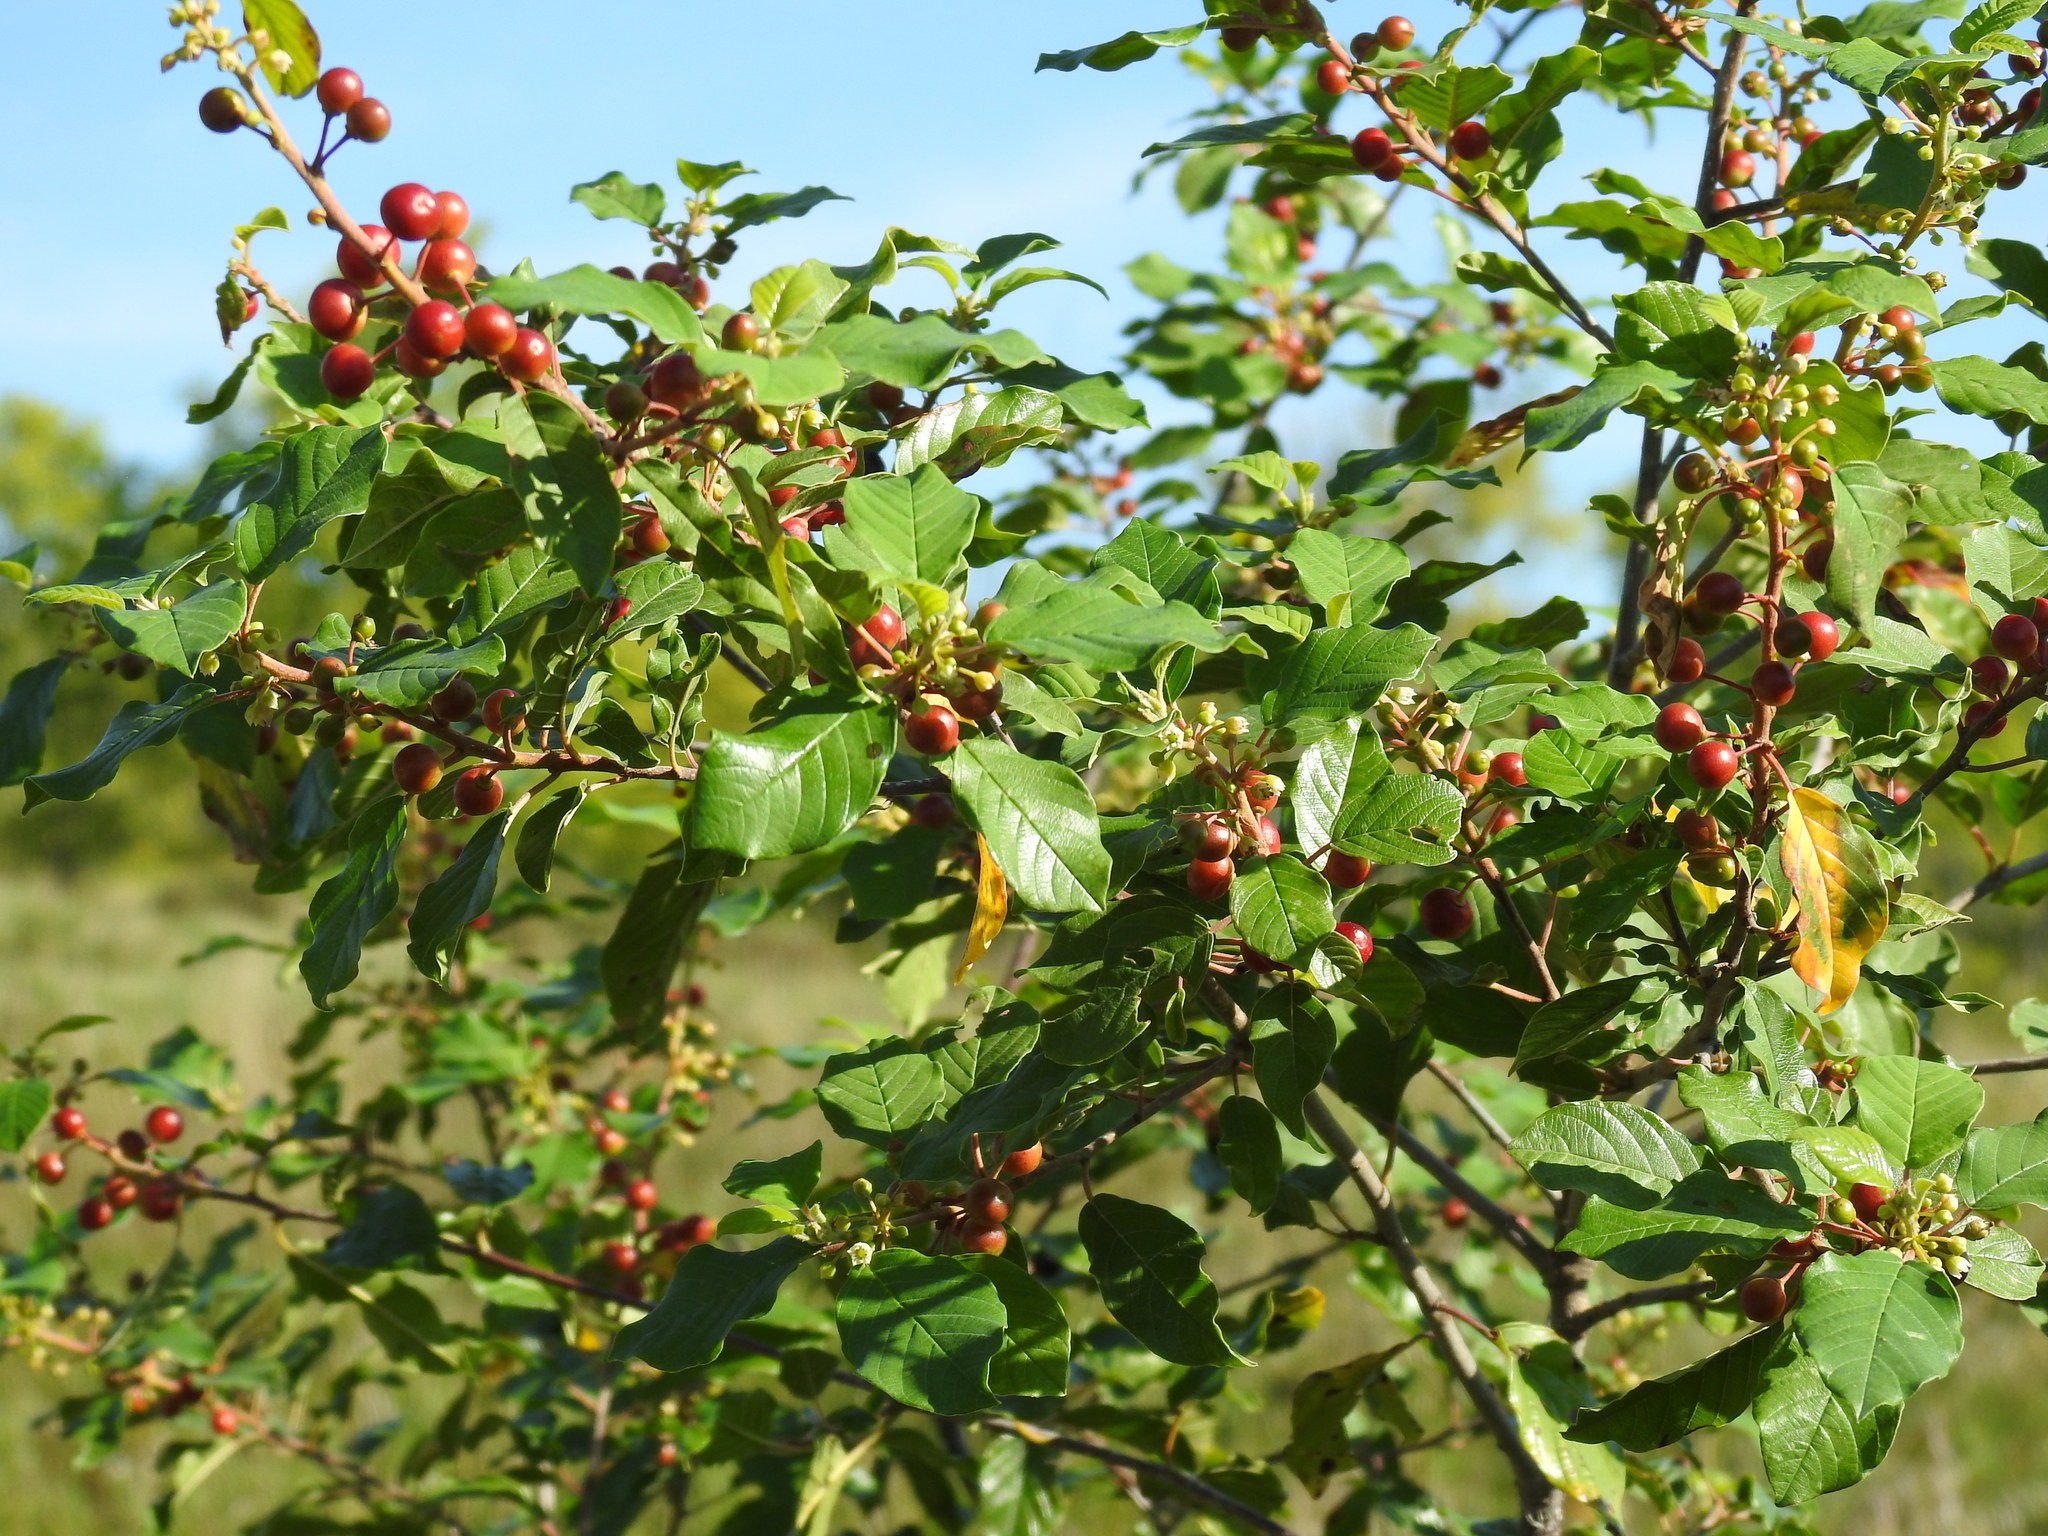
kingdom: Plantae
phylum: Tracheophyta
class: Magnoliopsida
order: Rosales
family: Rhamnaceae
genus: Frangula
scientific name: Frangula alnus
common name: Alder buckthorn
